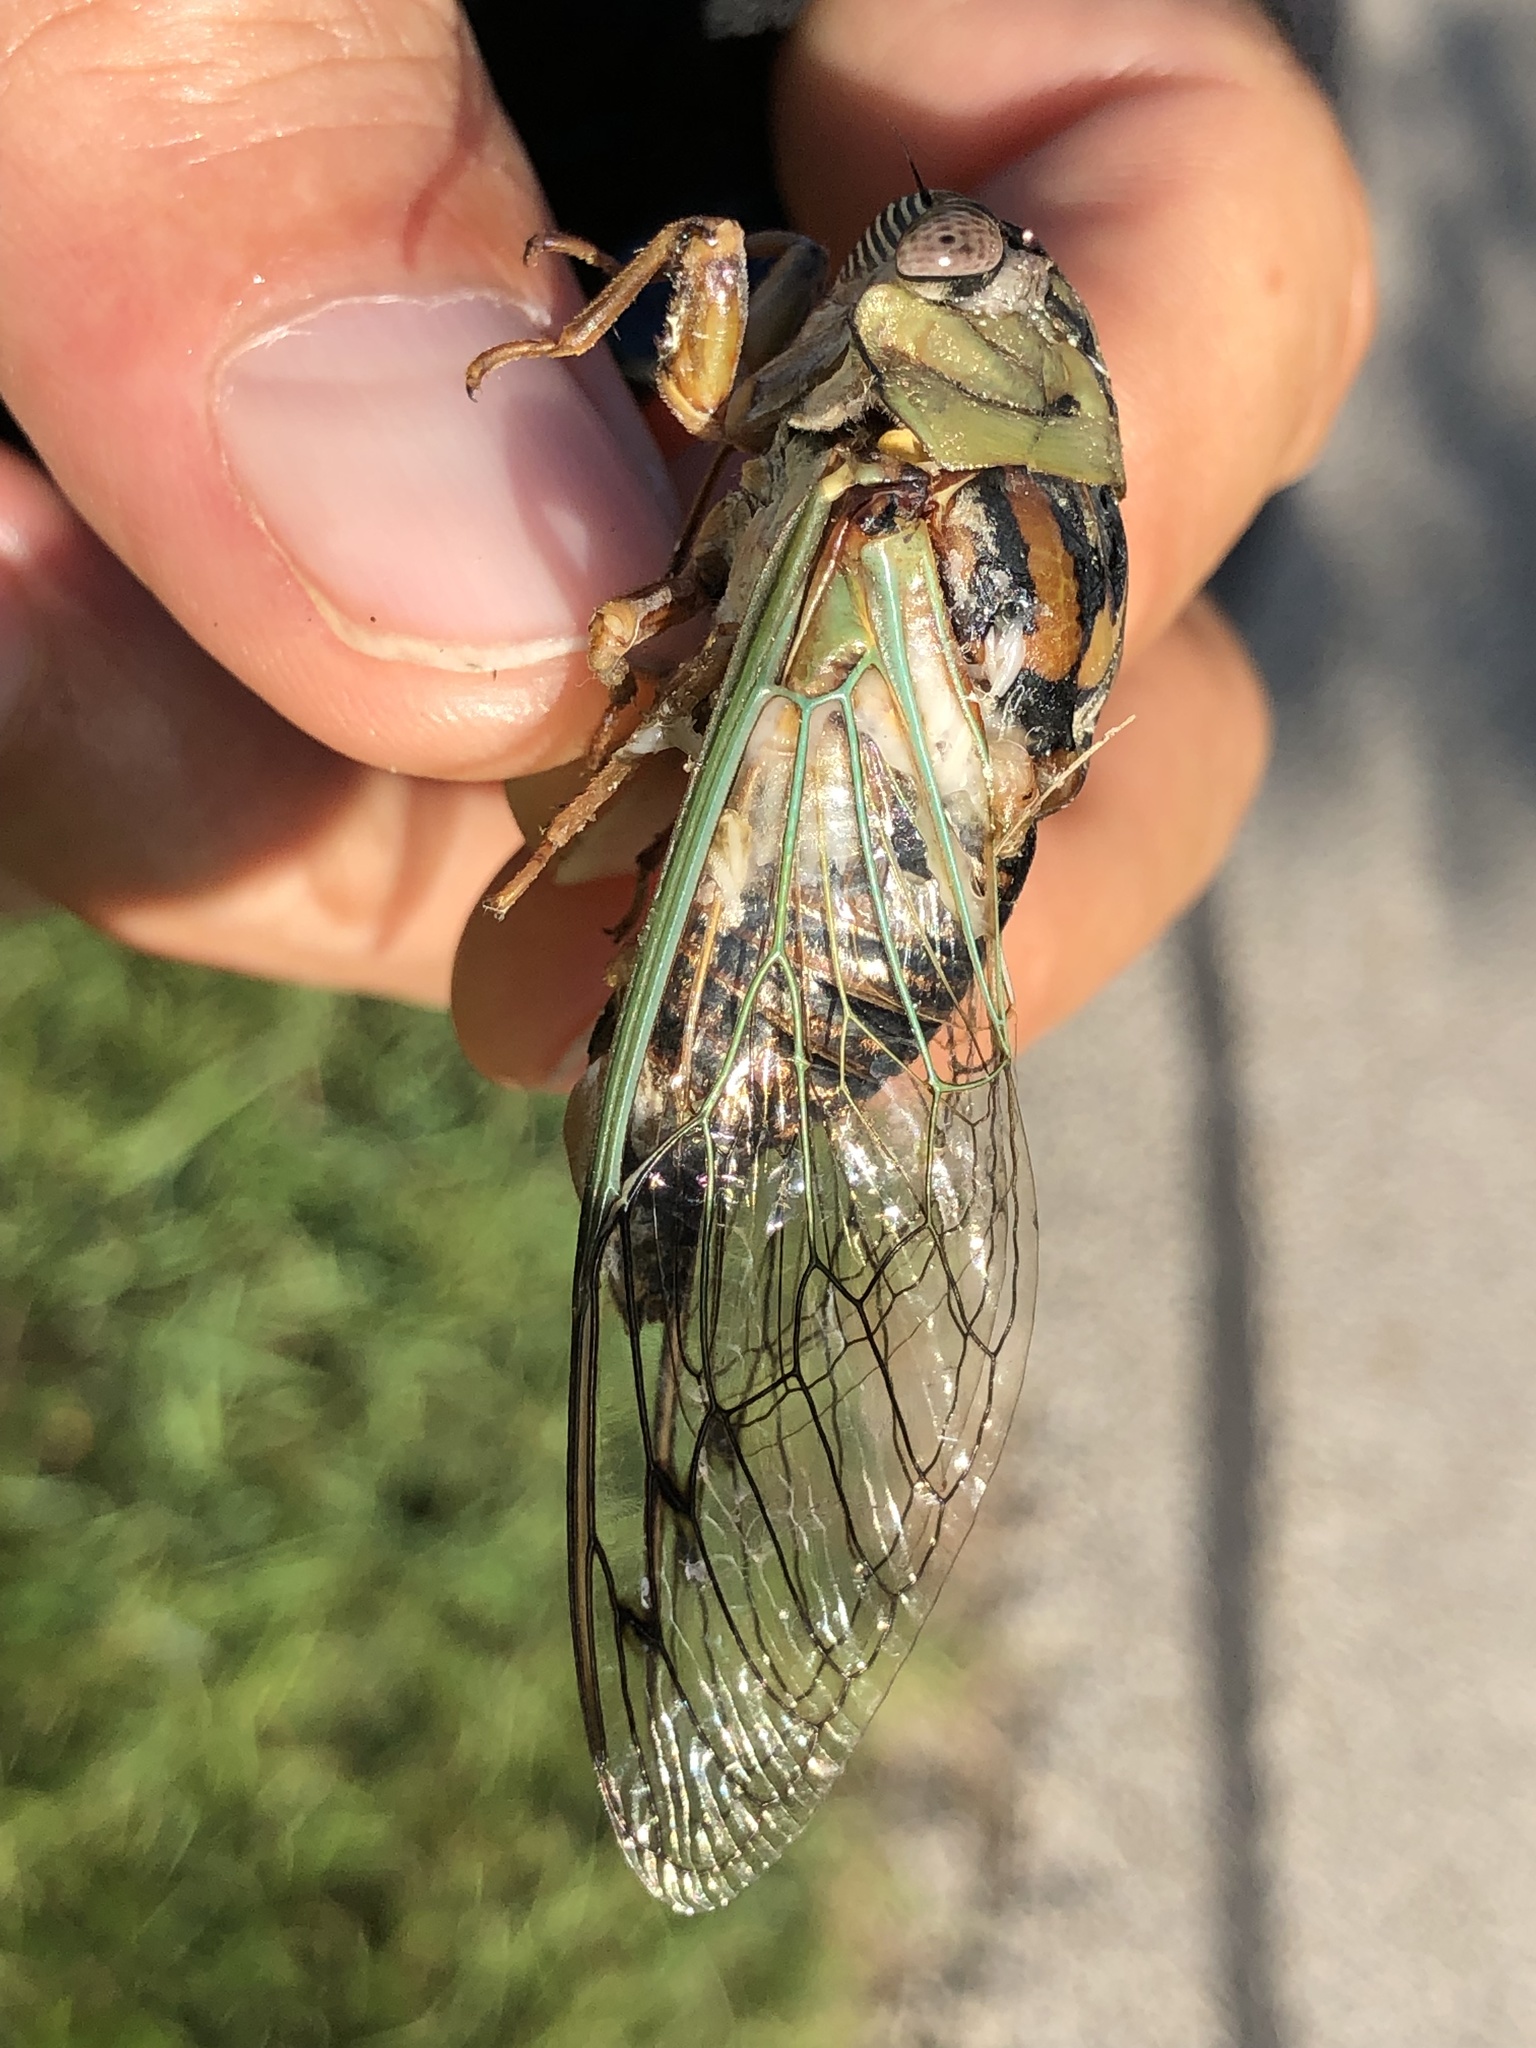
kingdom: Animalia
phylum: Arthropoda
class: Insecta
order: Hemiptera
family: Cicadidae
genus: Megatibicen
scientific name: Megatibicen resh
